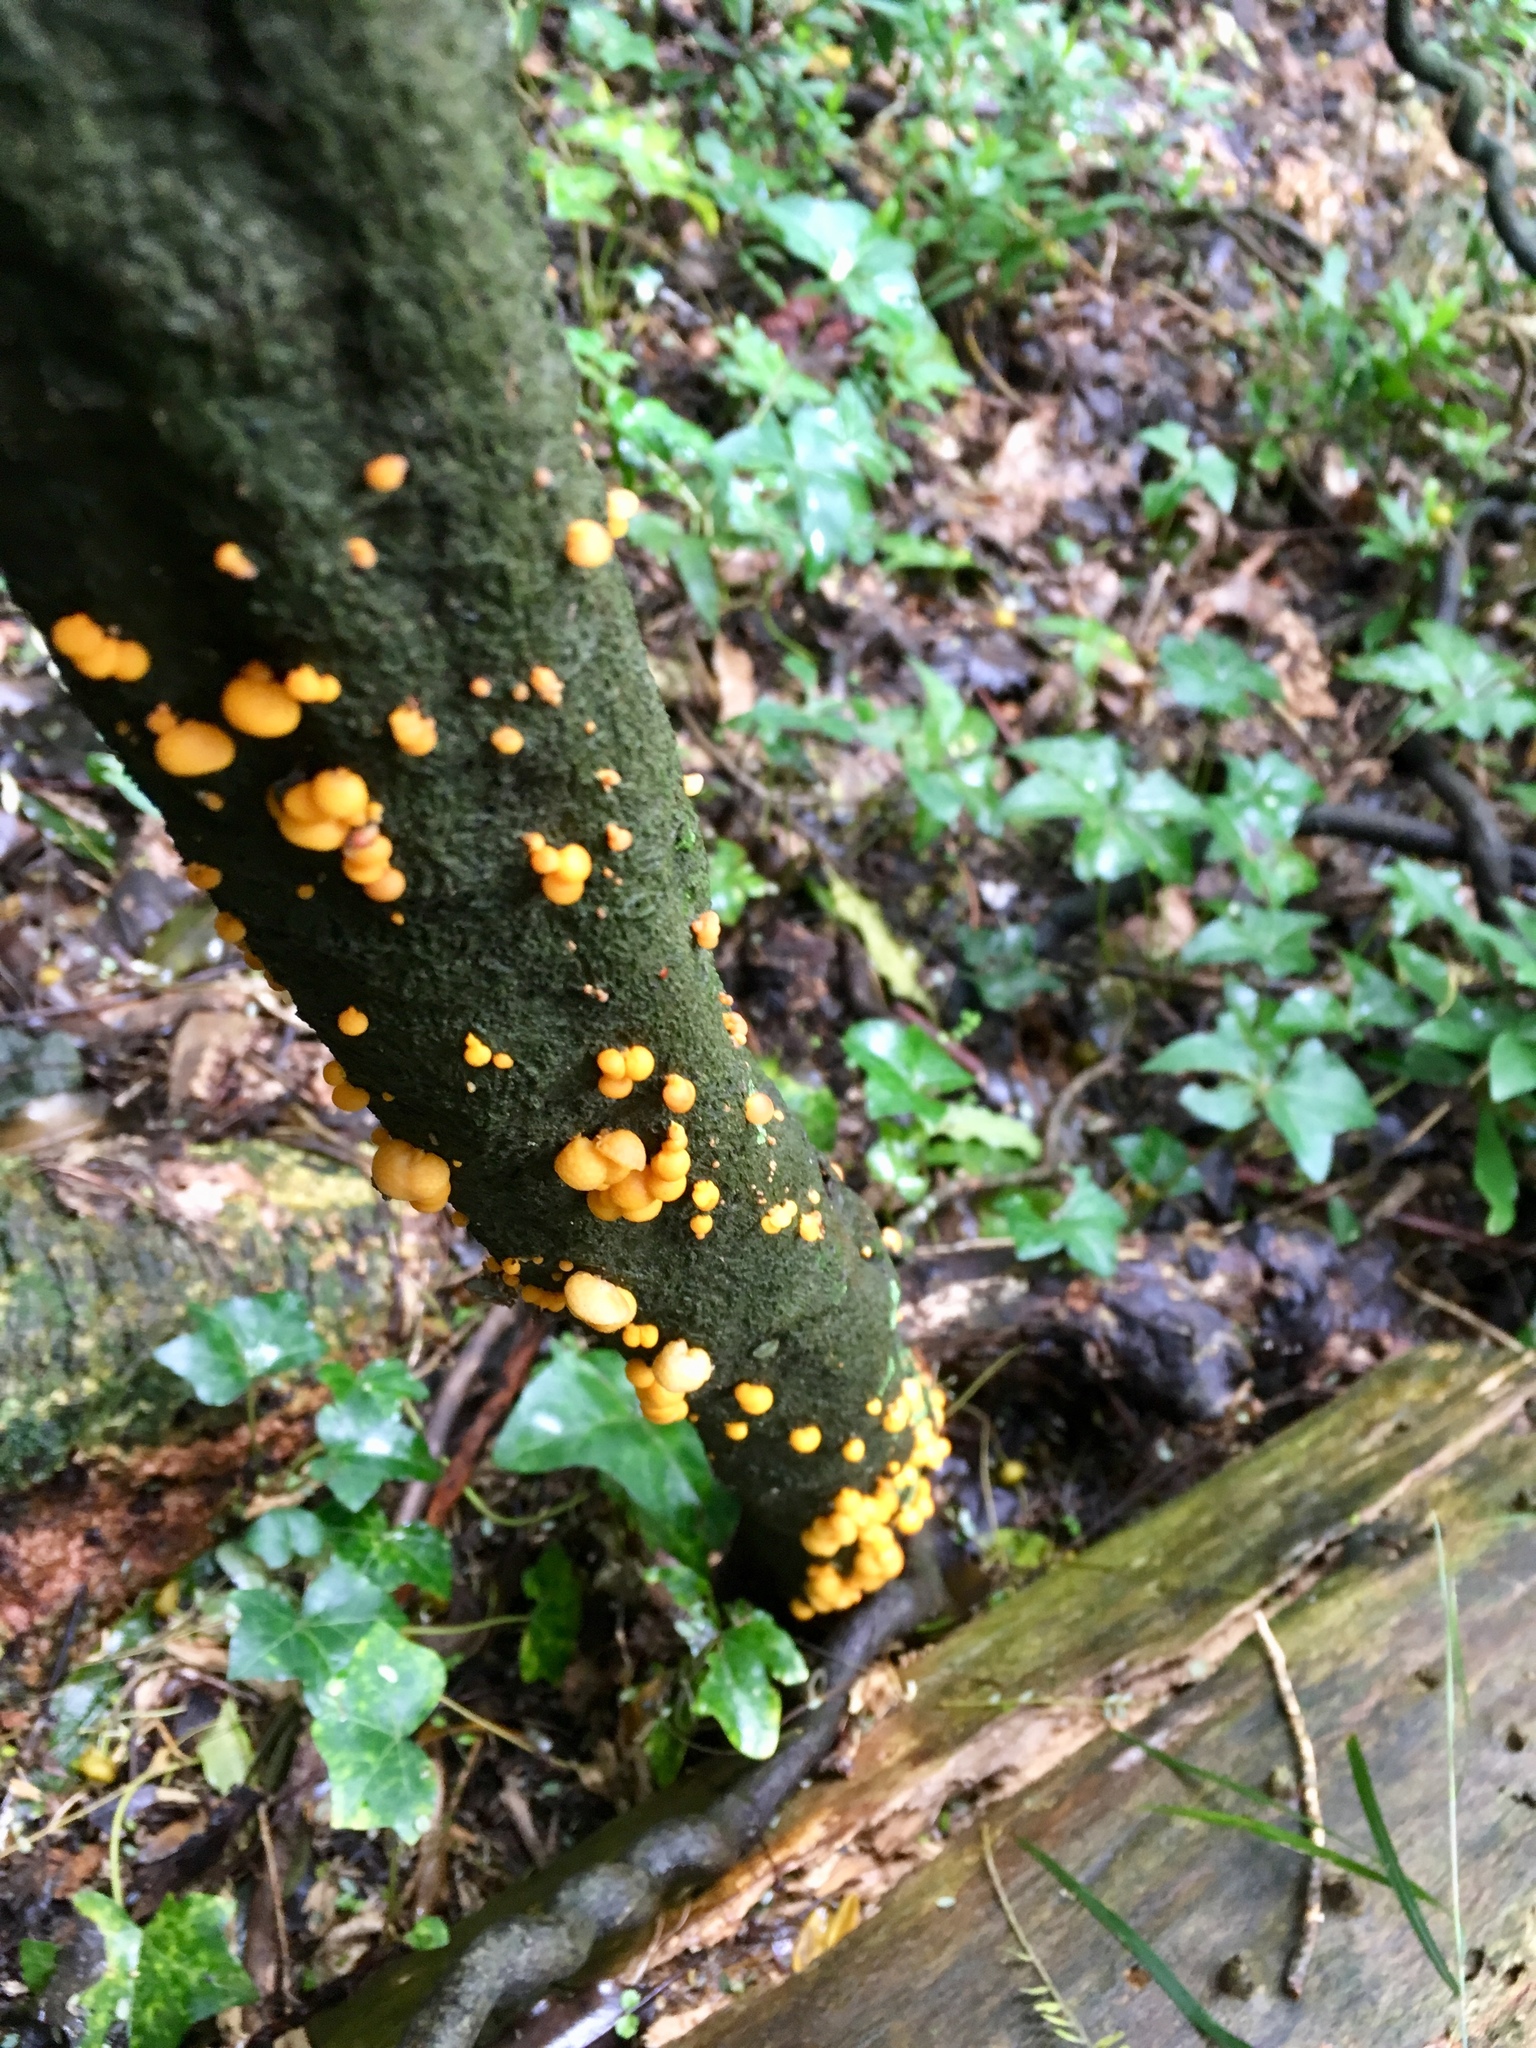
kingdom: Fungi
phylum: Basidiomycota
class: Agaricomycetes
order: Agaricales
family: Mycenaceae
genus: Favolaschia
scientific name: Favolaschia claudopus
